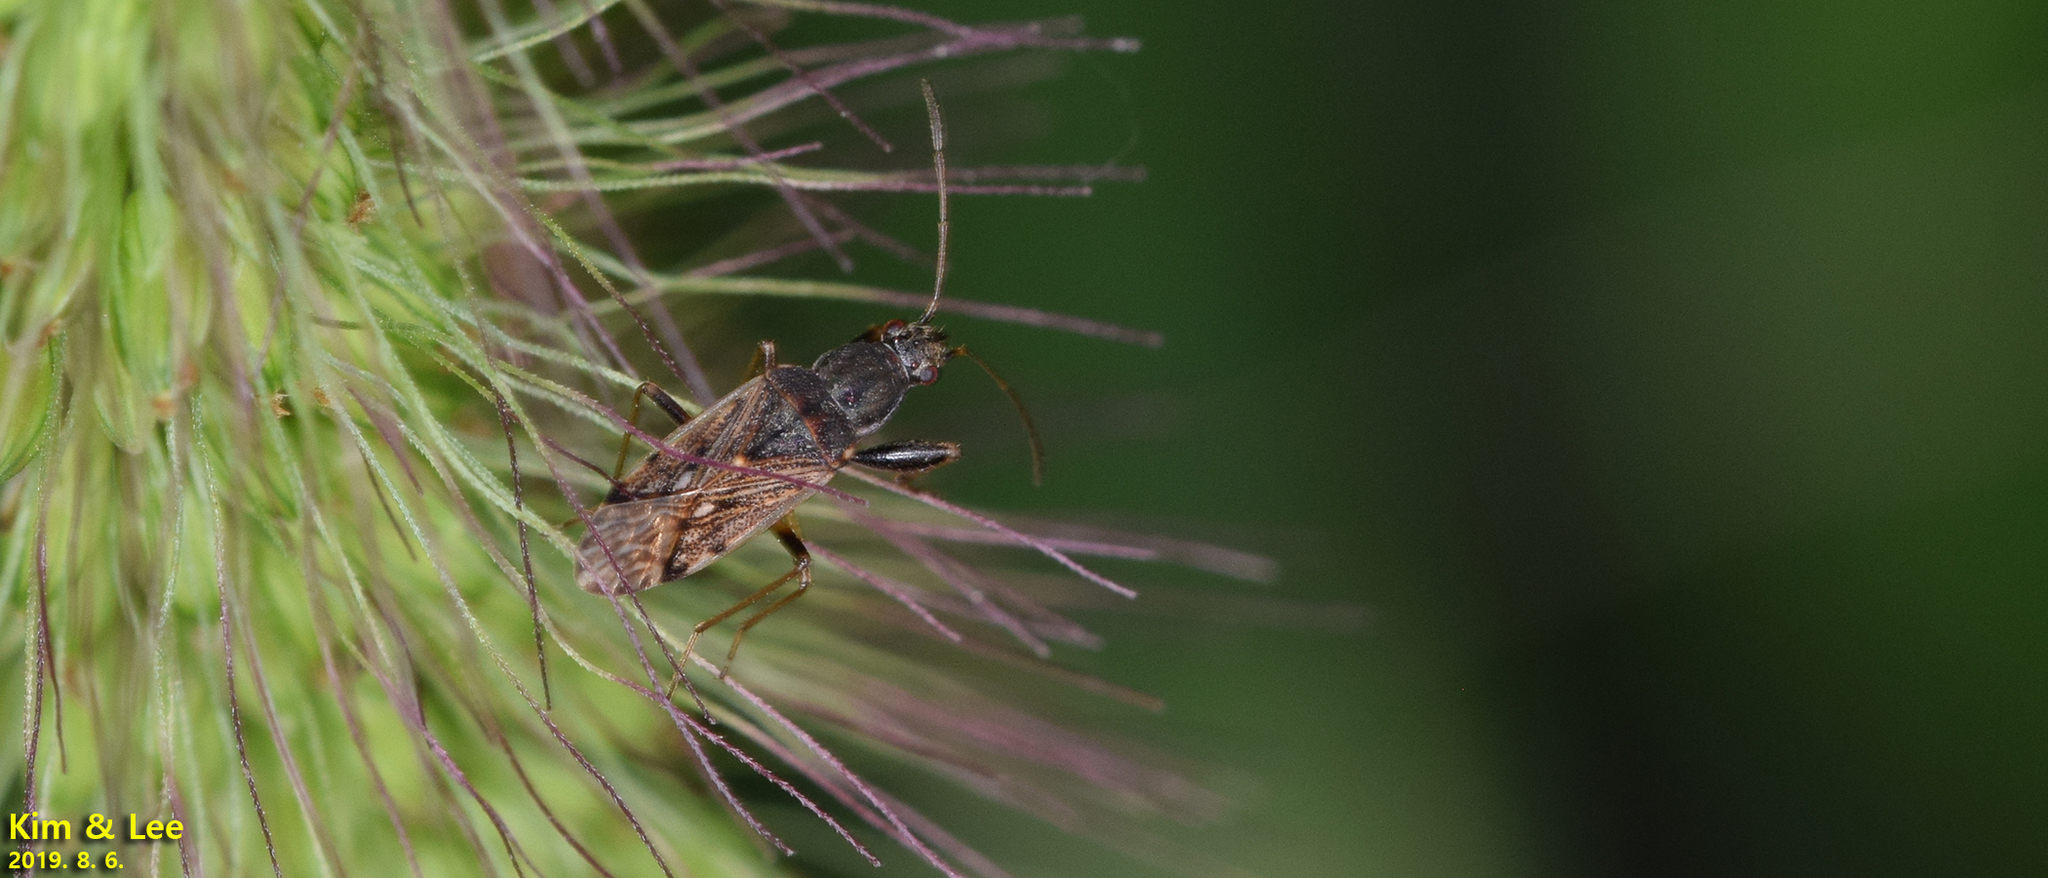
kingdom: Animalia
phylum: Arthropoda
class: Insecta
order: Hemiptera
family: Rhyparochromidae
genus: Horridipamera
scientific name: Horridipamera inconspicuus
